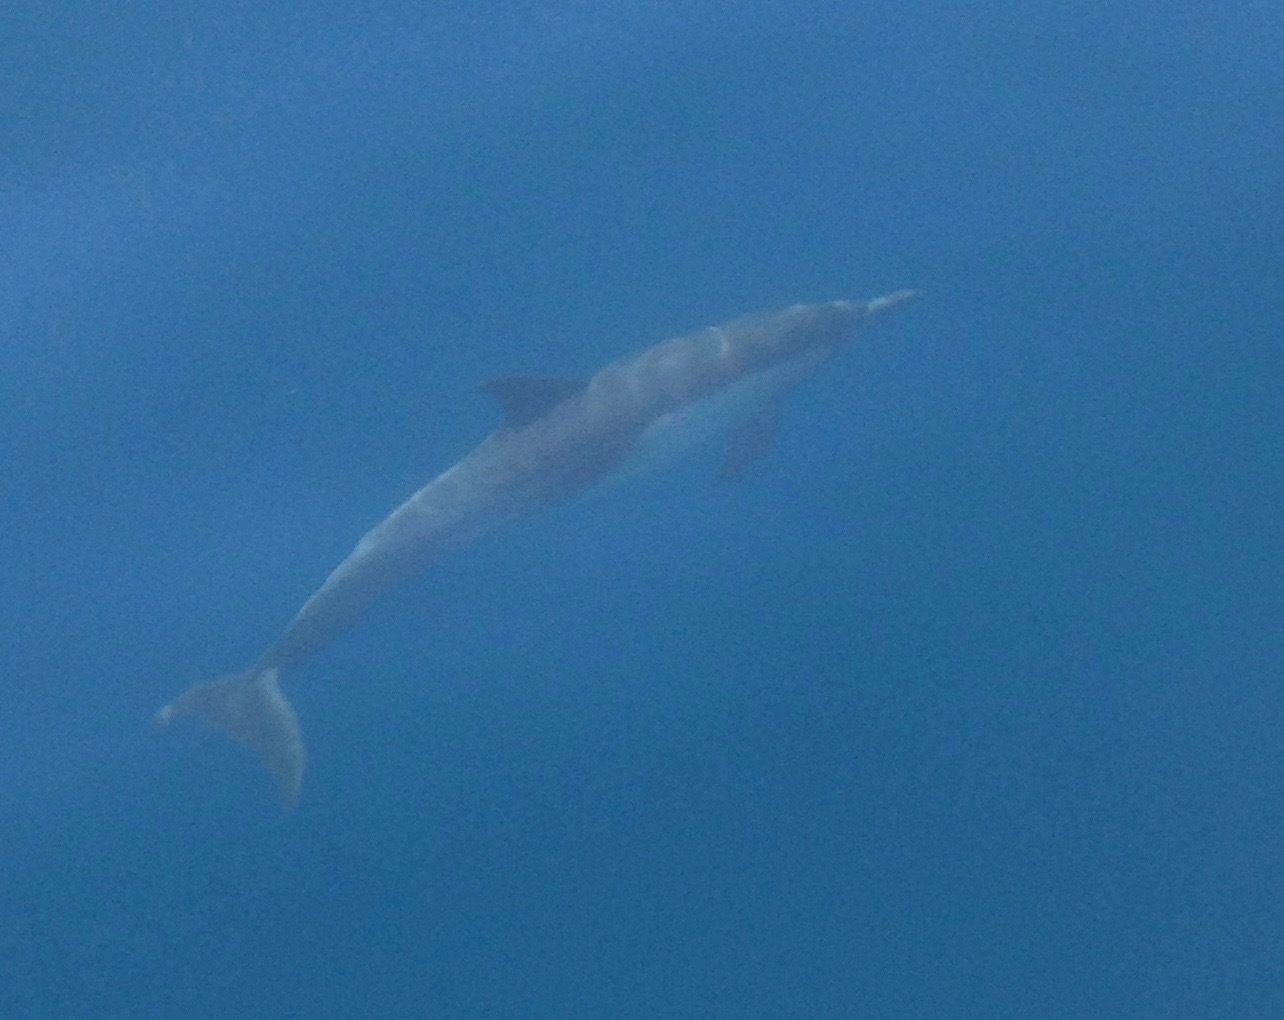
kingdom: Animalia
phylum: Chordata
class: Mammalia
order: Cetacea
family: Delphinidae
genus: Delphinus
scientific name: Delphinus delphis
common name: Common dolphin
